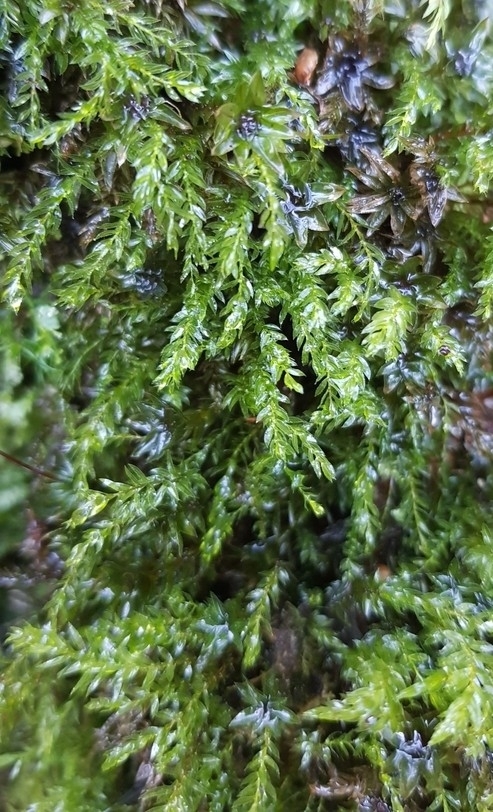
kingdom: Plantae
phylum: Bryophyta
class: Bryopsida
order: Bryales
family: Mniaceae
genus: Mnium
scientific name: Mnium hornum
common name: Swan's-neck leafy moss
